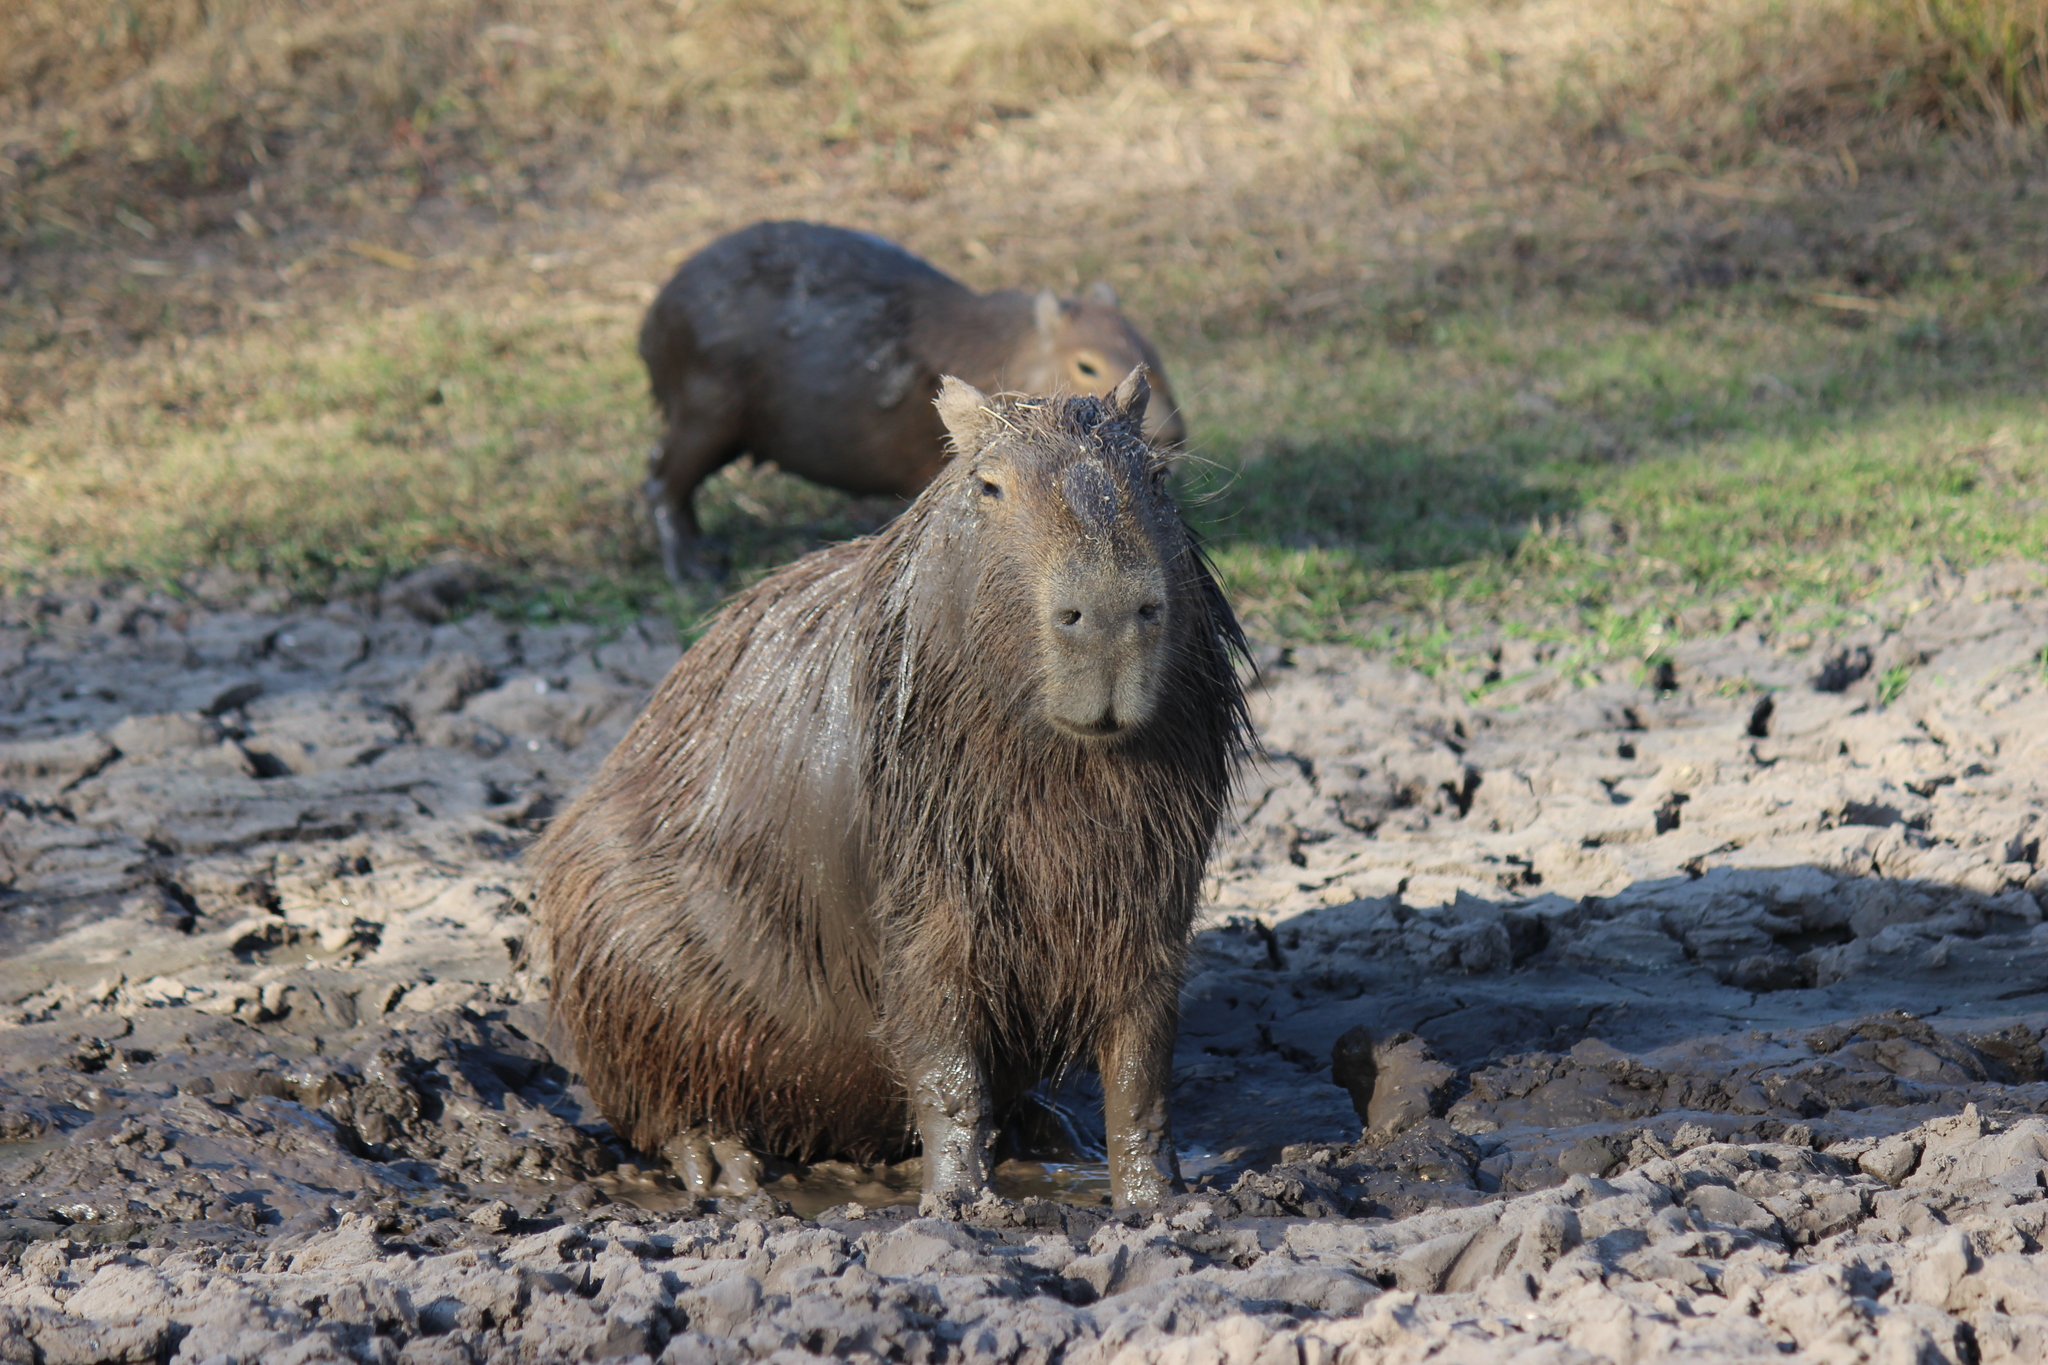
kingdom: Animalia
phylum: Chordata
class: Mammalia
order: Rodentia
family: Caviidae
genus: Hydrochoerus
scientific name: Hydrochoerus hydrochaeris
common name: Capybara
